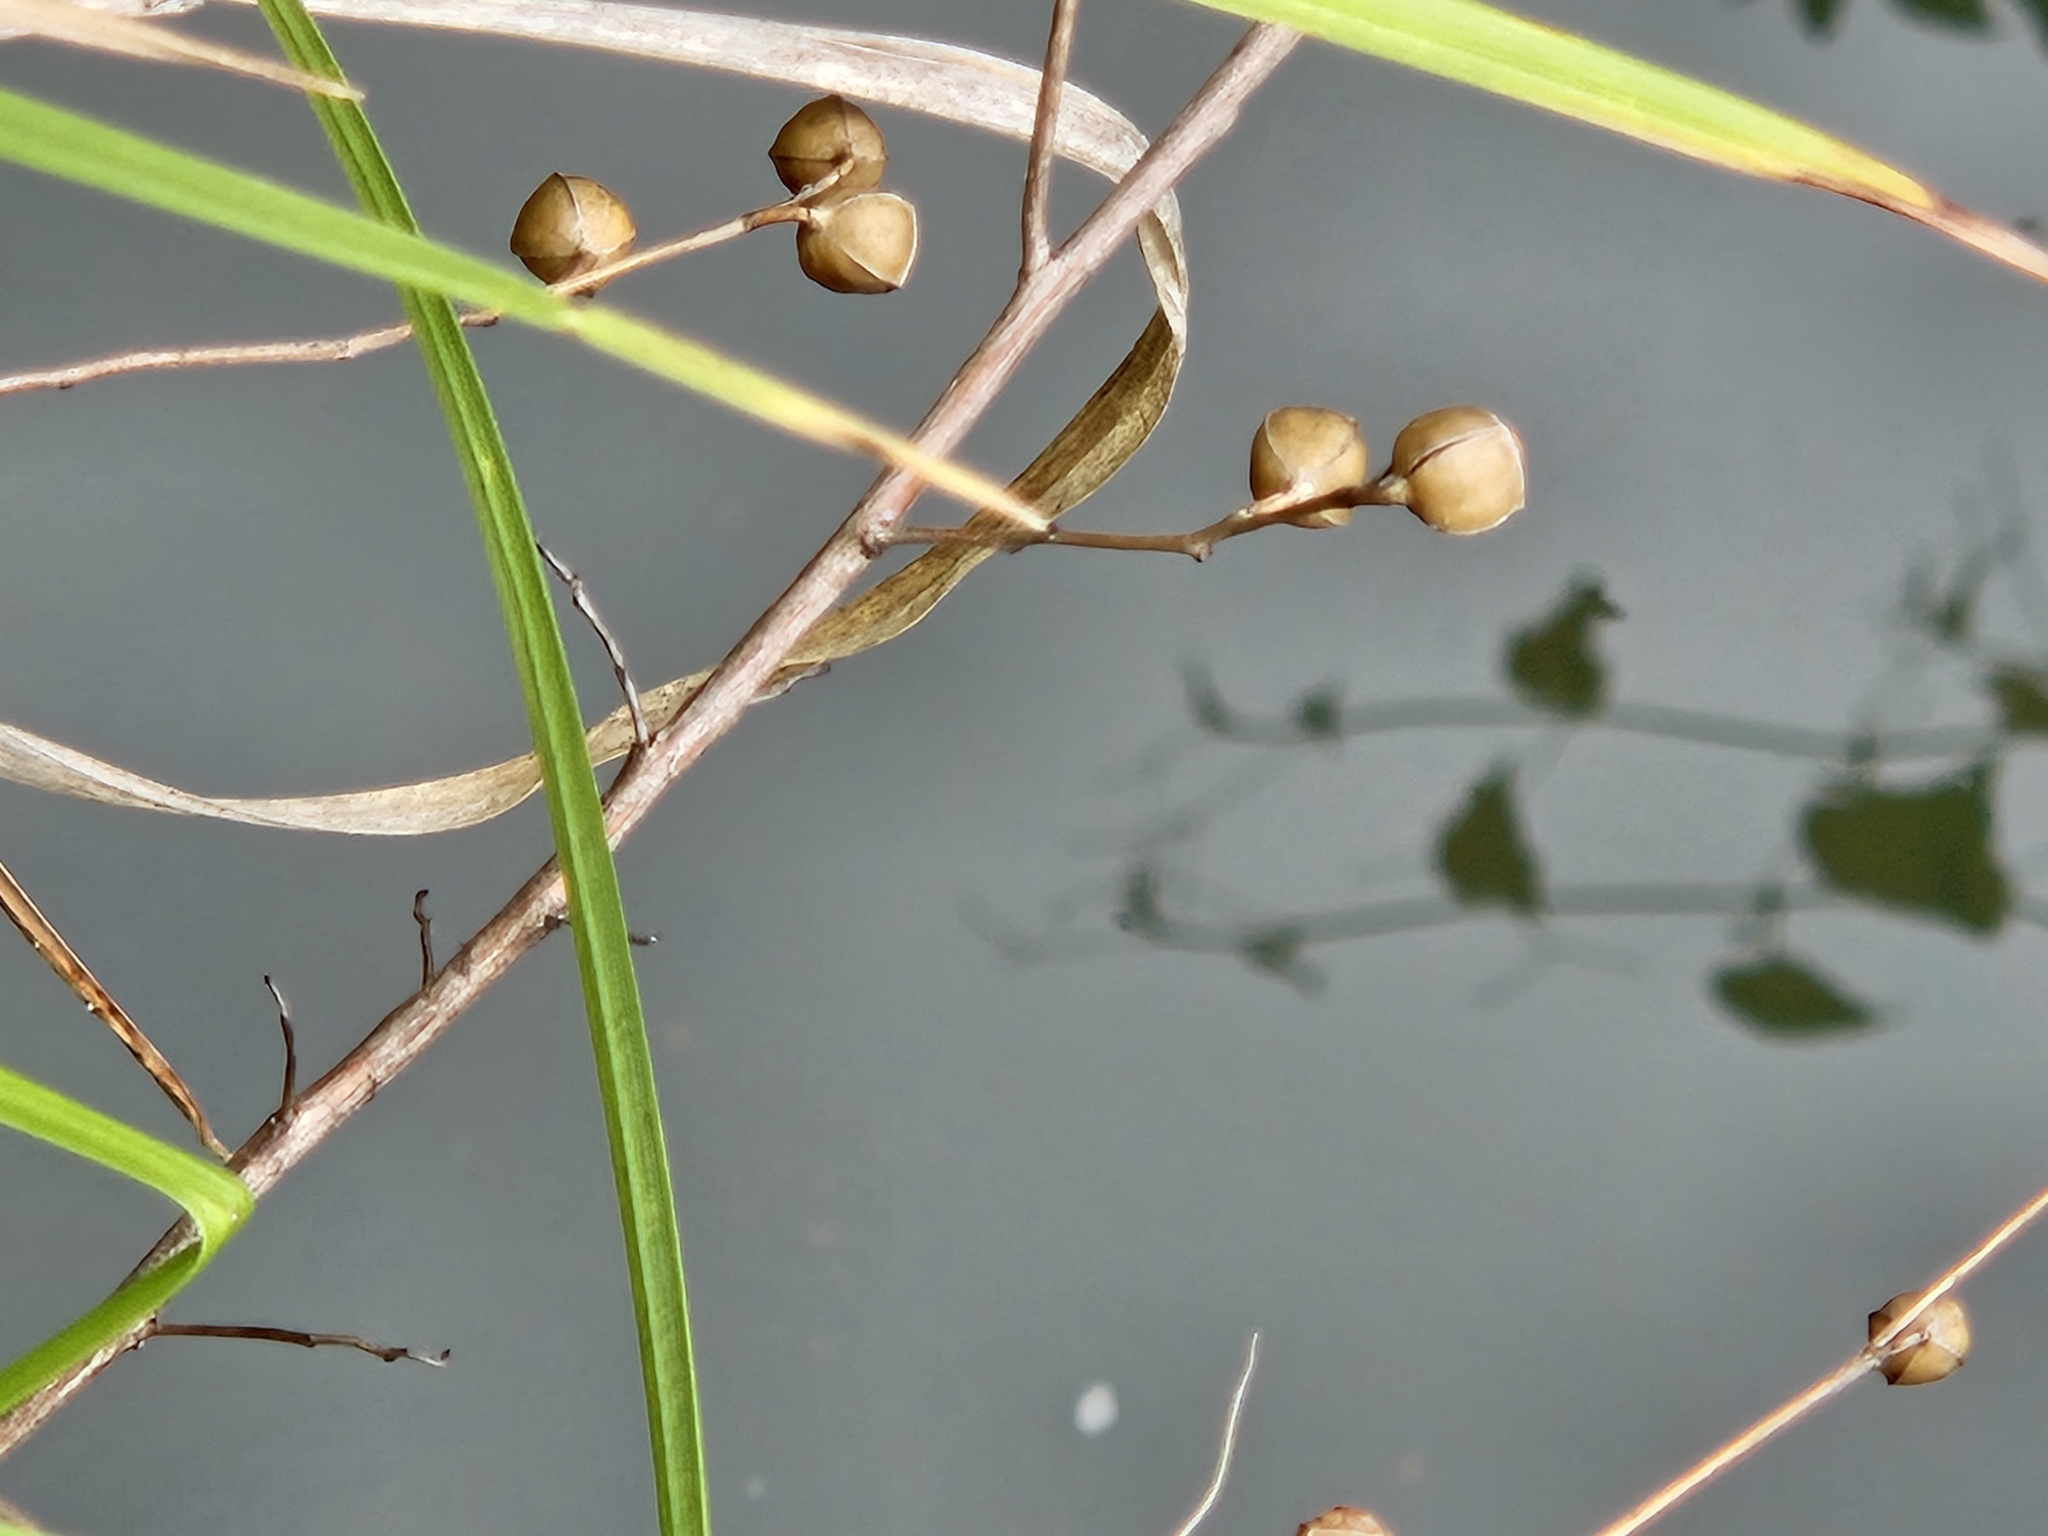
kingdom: Plantae
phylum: Tracheophyta
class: Magnoliopsida
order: Myrtales
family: Onagraceae
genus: Ludwigia
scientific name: Ludwigia alternifolia
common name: Rattlebox
